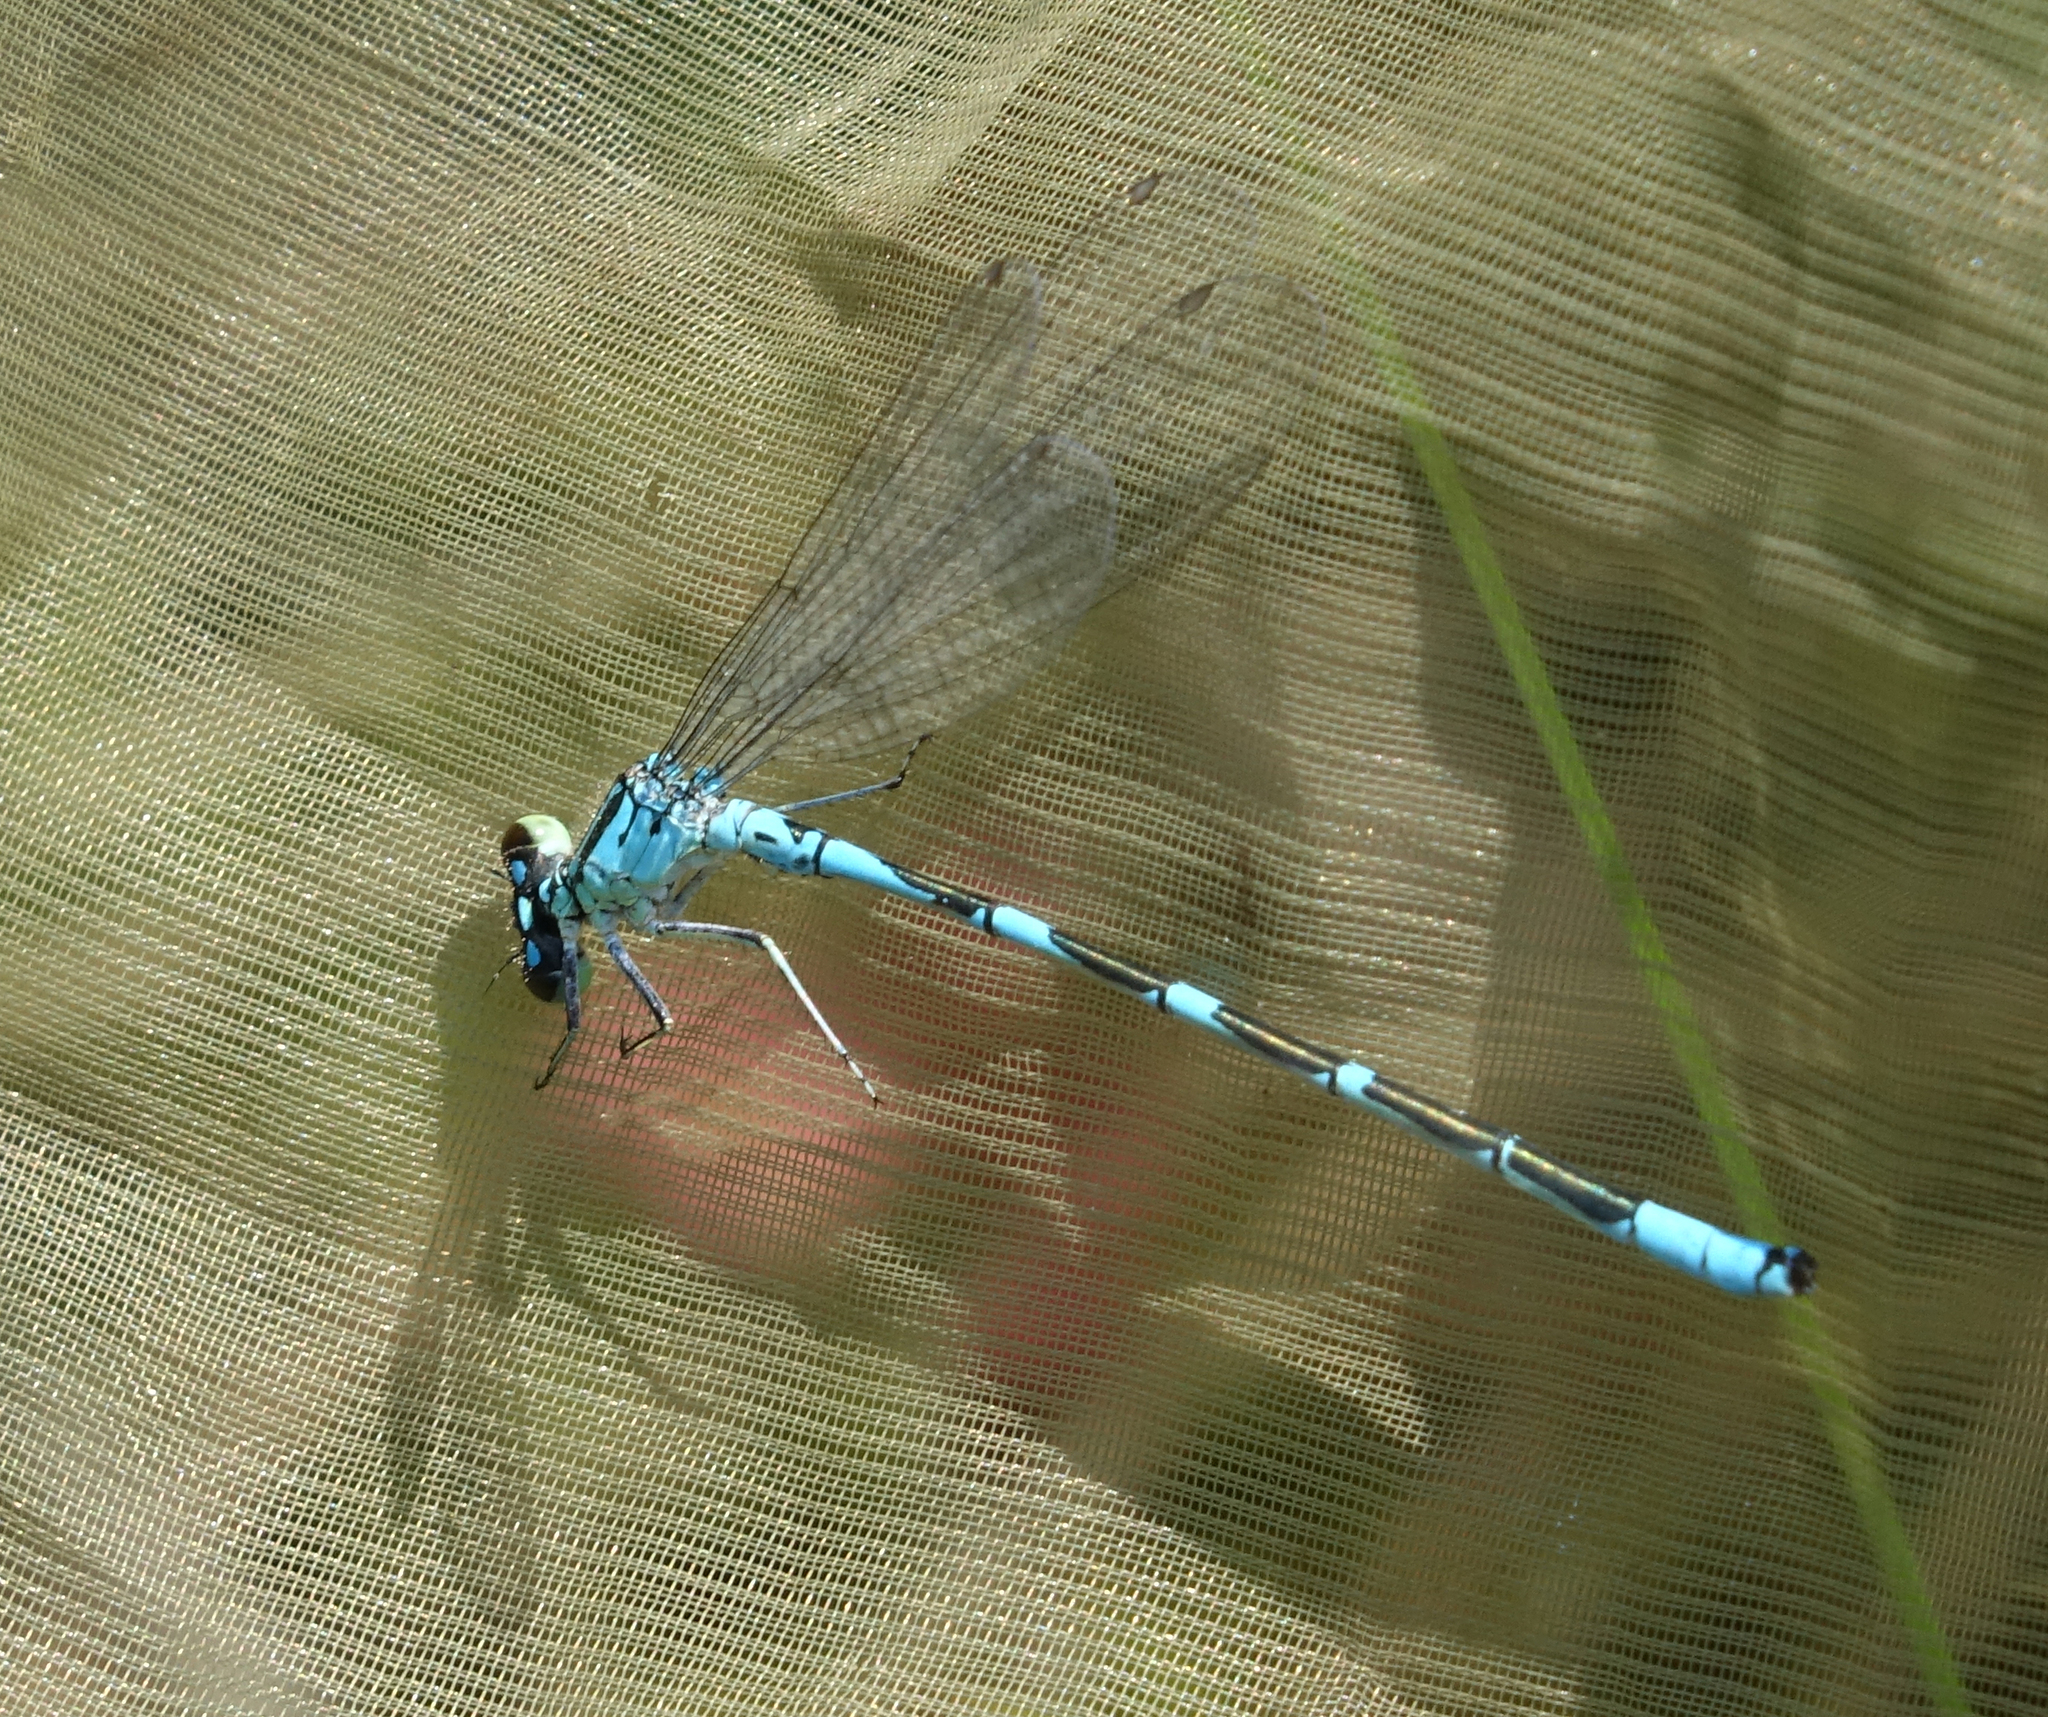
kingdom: Animalia
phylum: Arthropoda
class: Insecta
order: Odonata
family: Coenagrionidae
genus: Coenagrion
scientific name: Coenagrion lanceolatum
